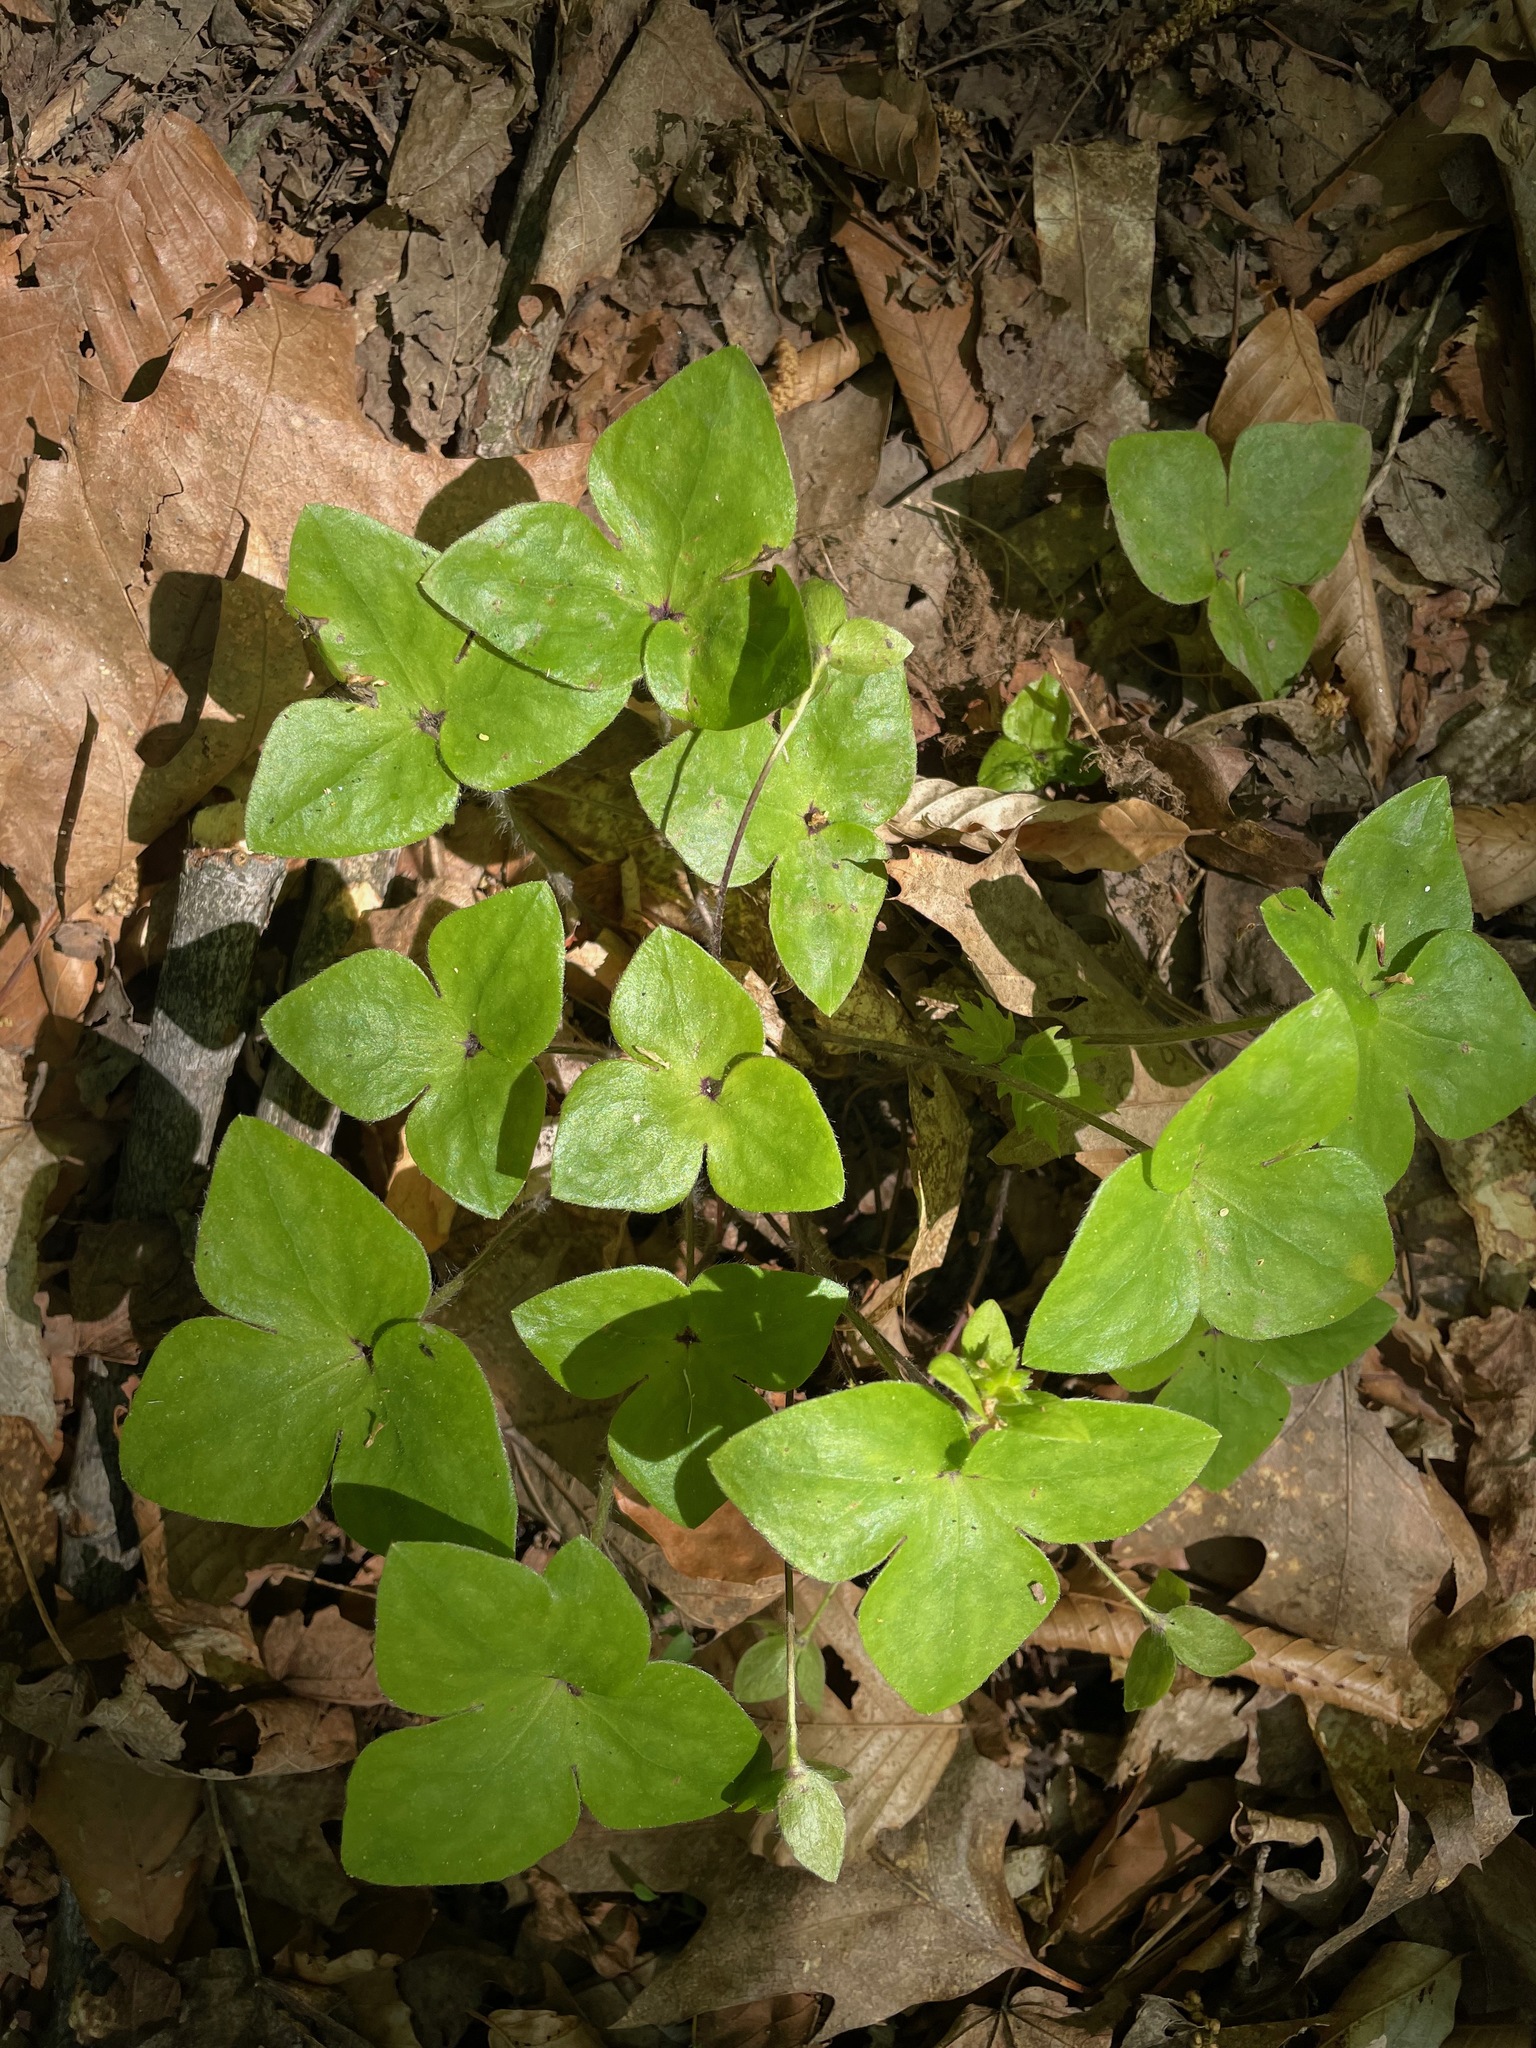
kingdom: Plantae
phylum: Tracheophyta
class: Magnoliopsida
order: Ranunculales
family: Ranunculaceae
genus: Hepatica
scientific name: Hepatica acutiloba
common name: Sharp-lobed hepatica
